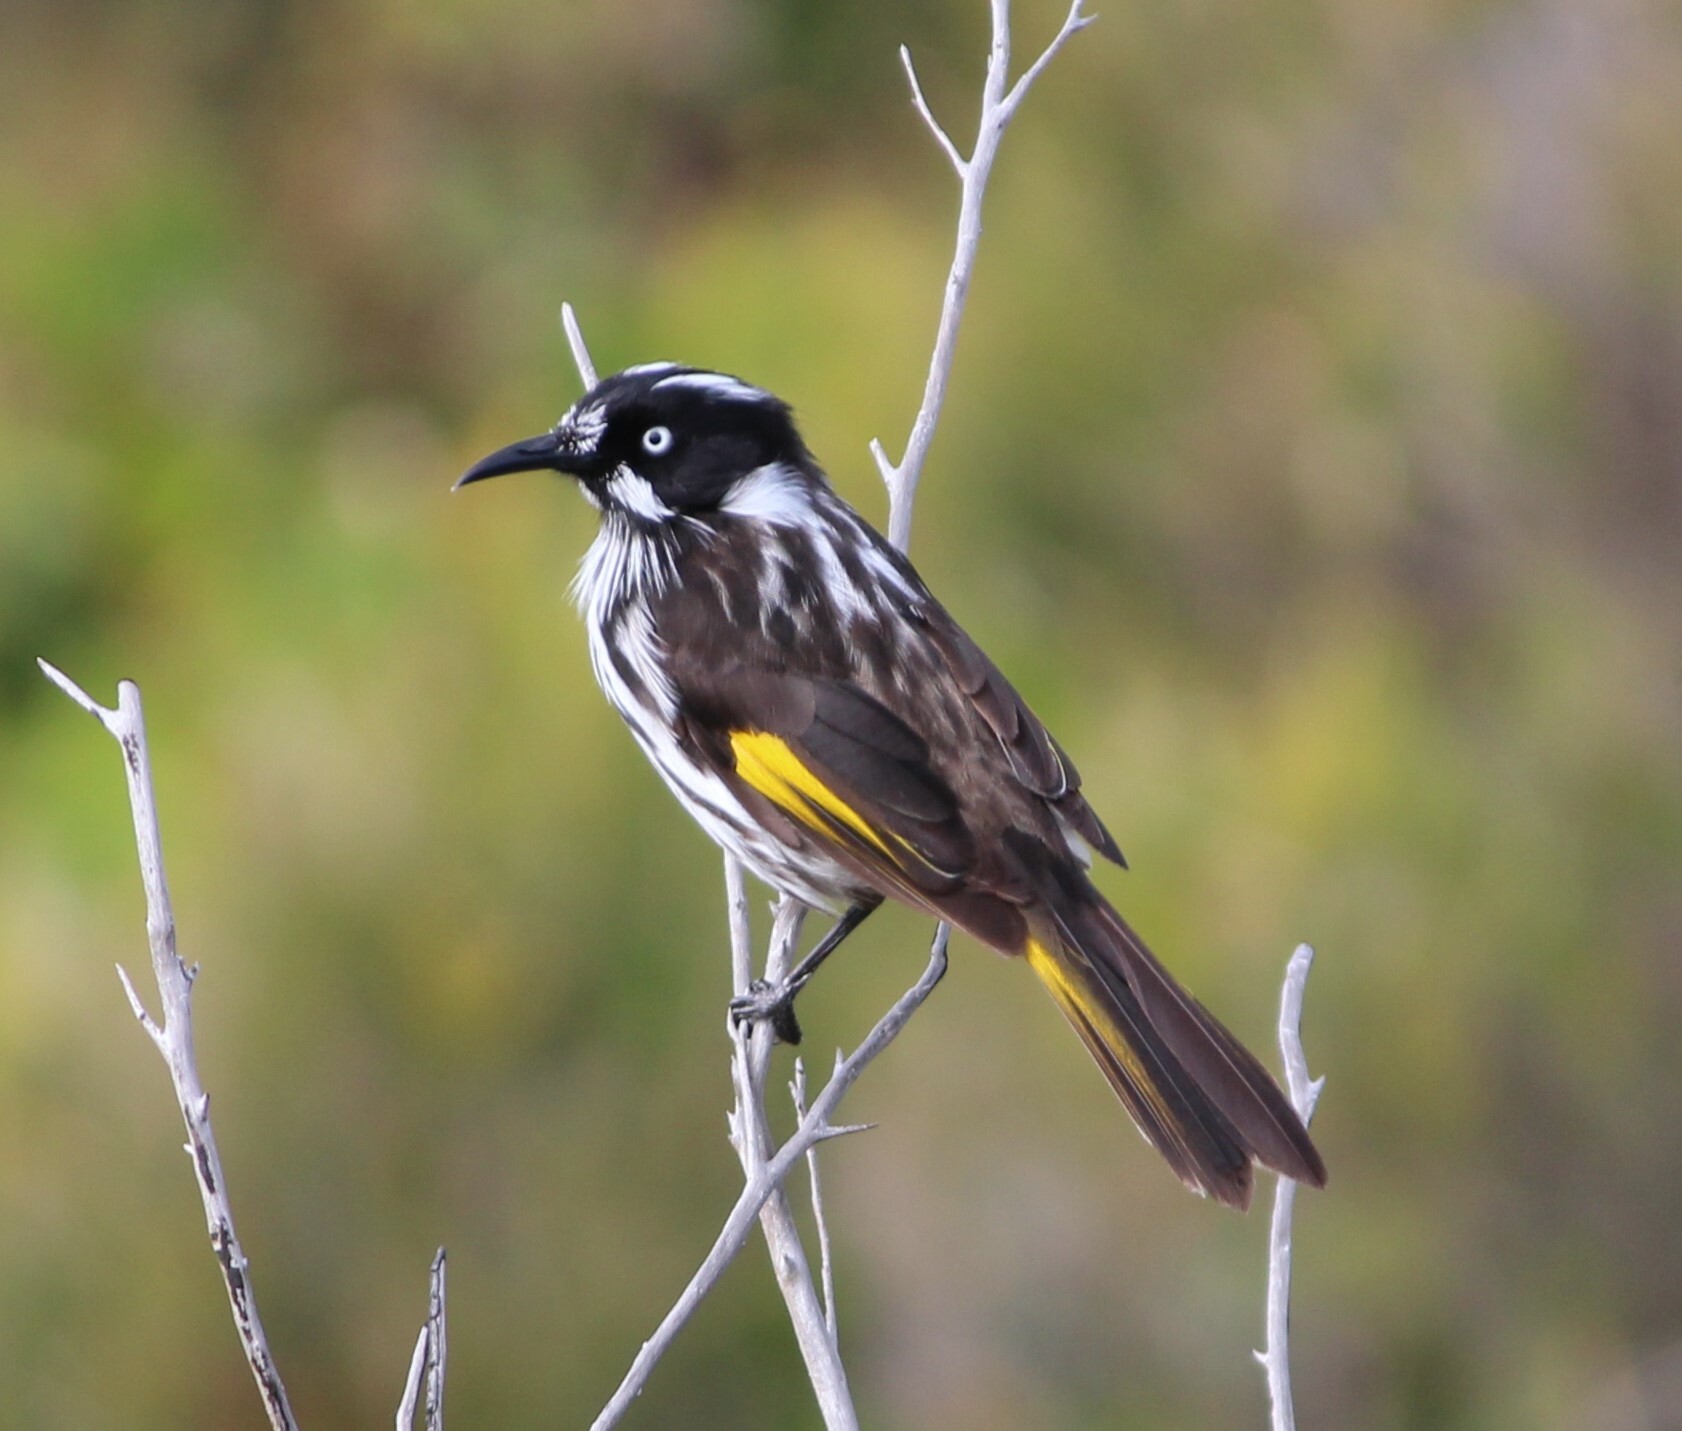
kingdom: Animalia
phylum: Chordata
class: Aves
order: Passeriformes
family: Meliphagidae
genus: Phylidonyris
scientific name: Phylidonyris novaehollandiae
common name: New holland honeyeater
